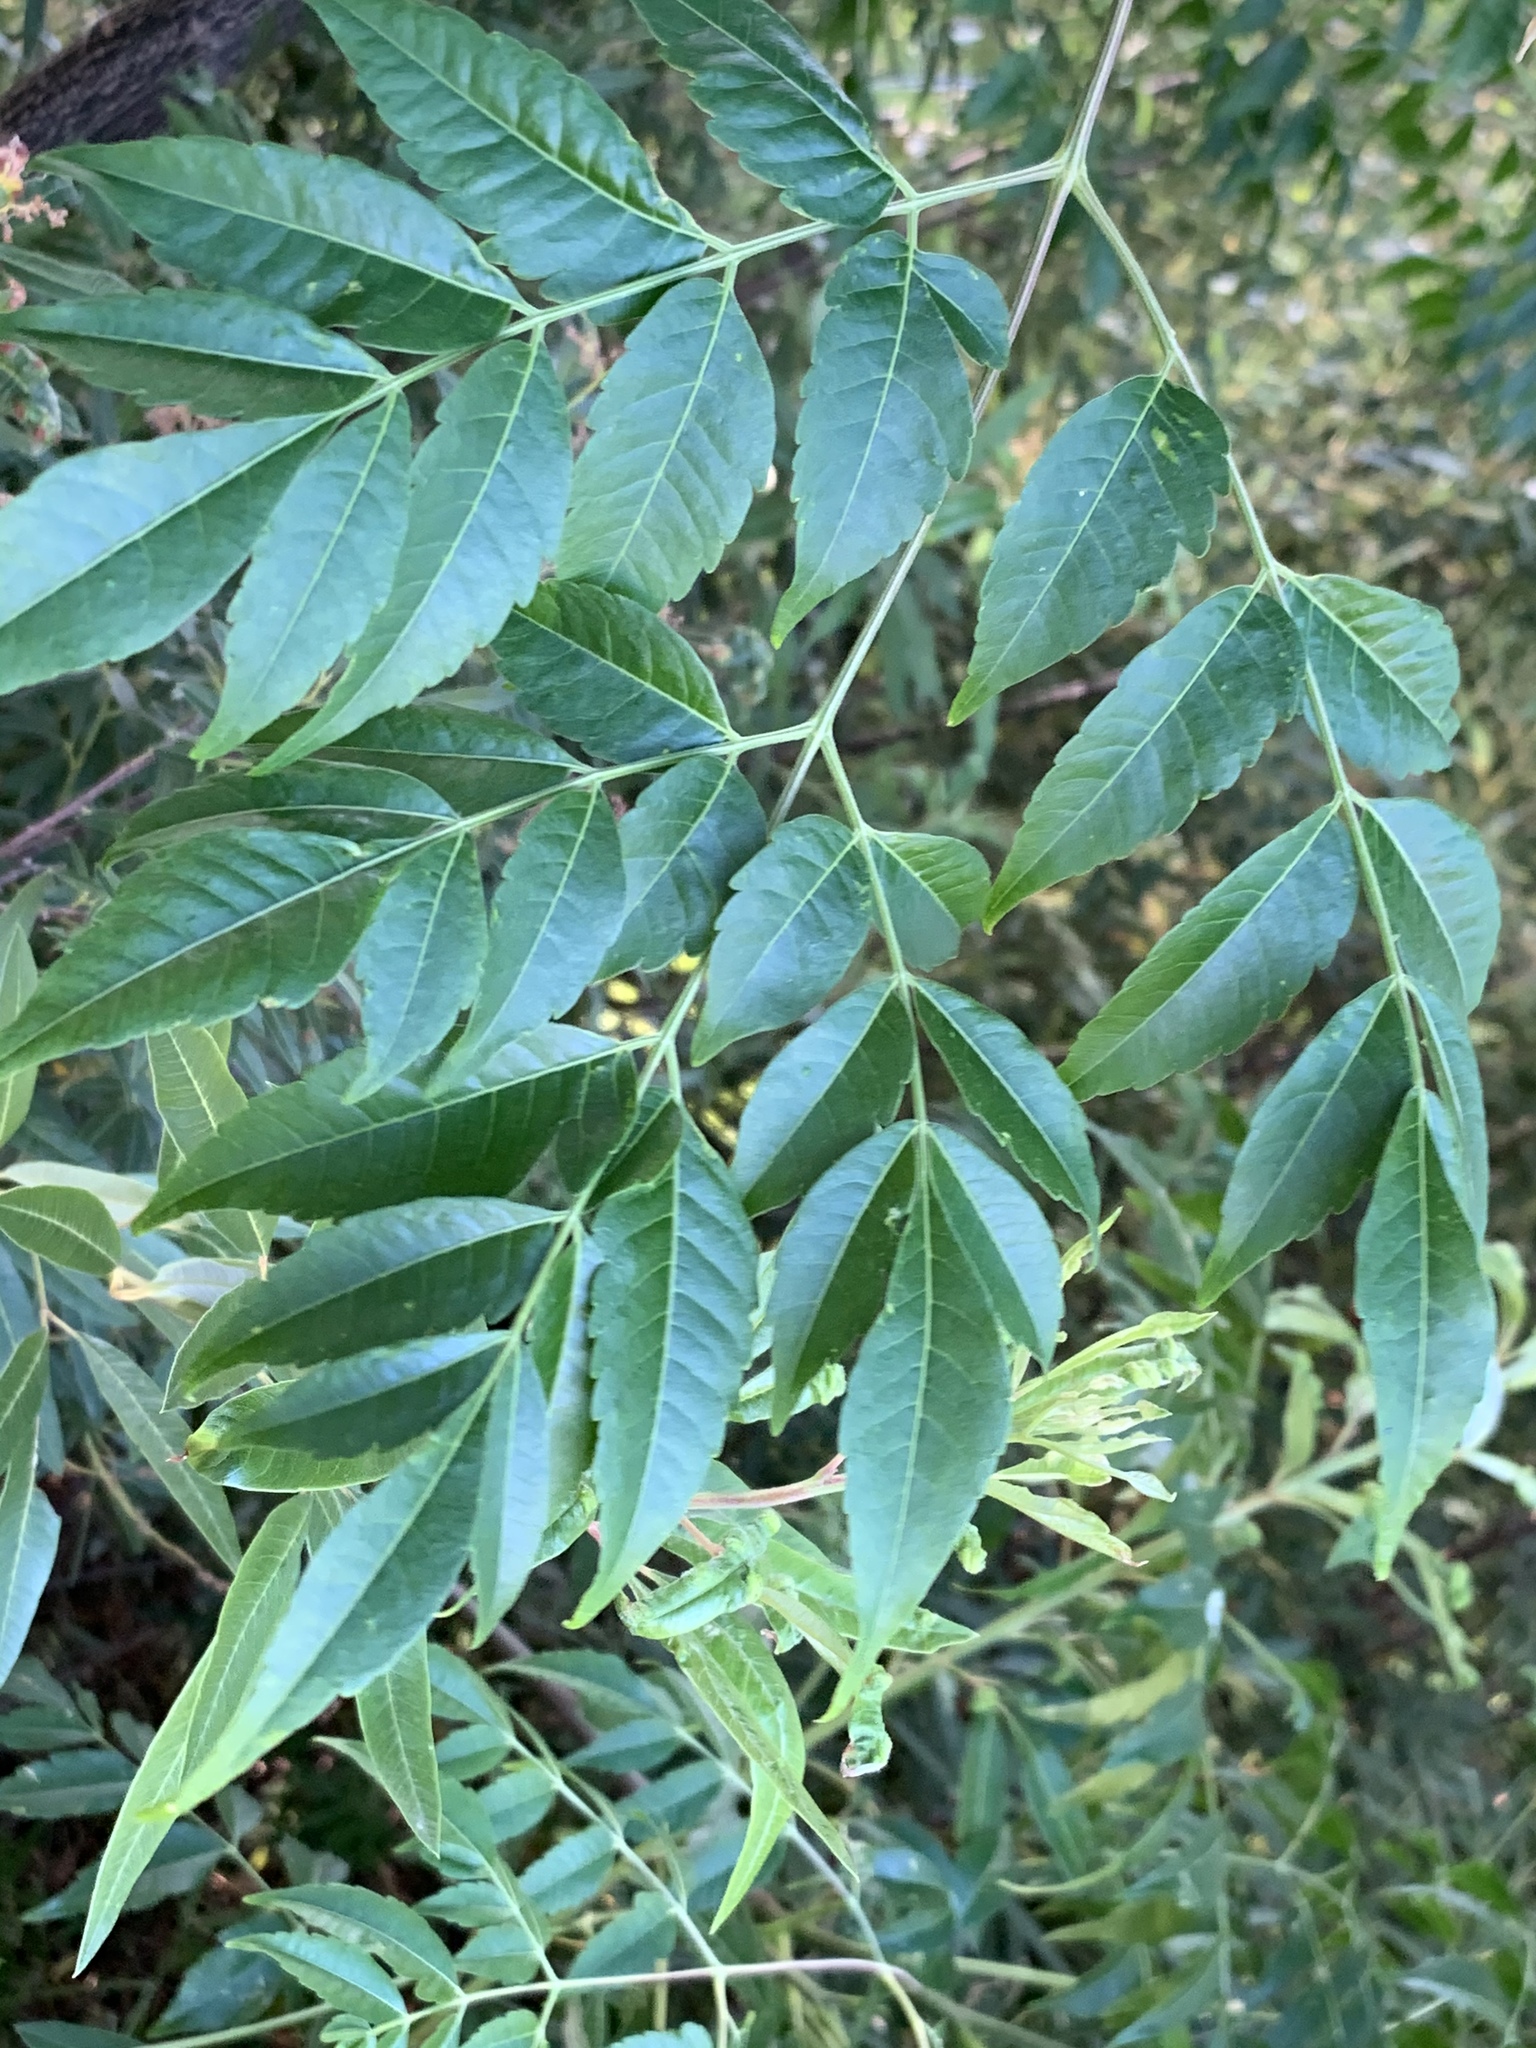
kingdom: Plantae
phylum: Tracheophyta
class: Magnoliopsida
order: Sapindales
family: Meliaceae
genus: Melia
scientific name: Melia azedarach
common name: Chinaberrytree
